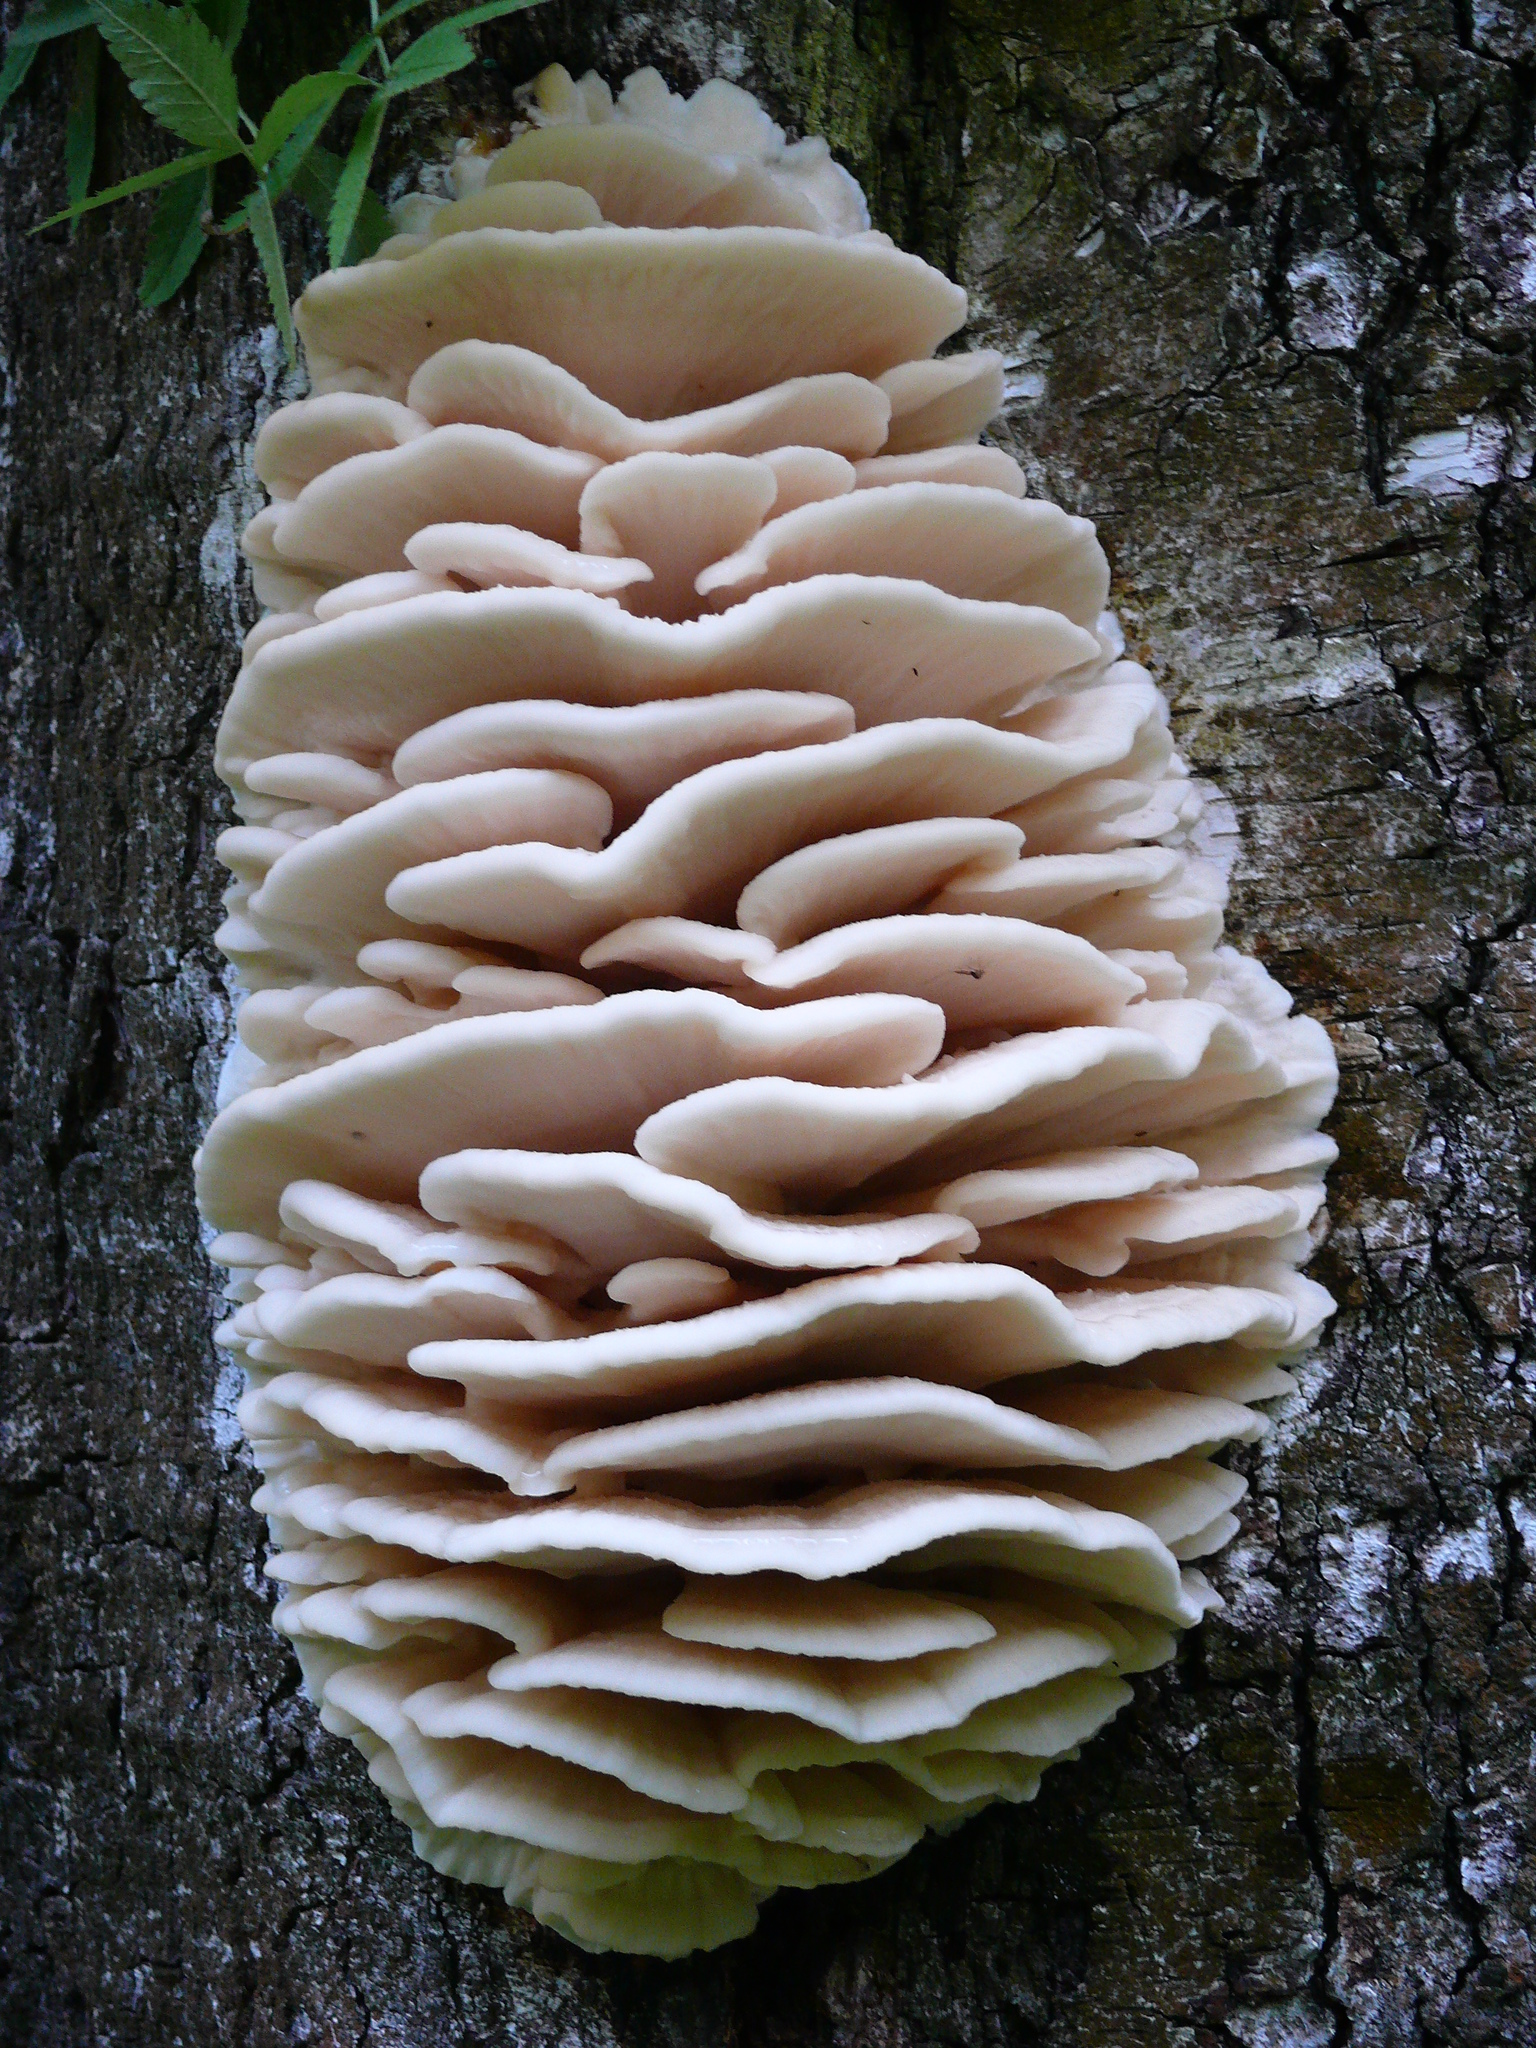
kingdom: Fungi
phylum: Basidiomycota
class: Agaricomycetes
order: Polyporales
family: Meruliaceae
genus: Climacodon
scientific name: Climacodon septentrionalis
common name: Northern tooth
